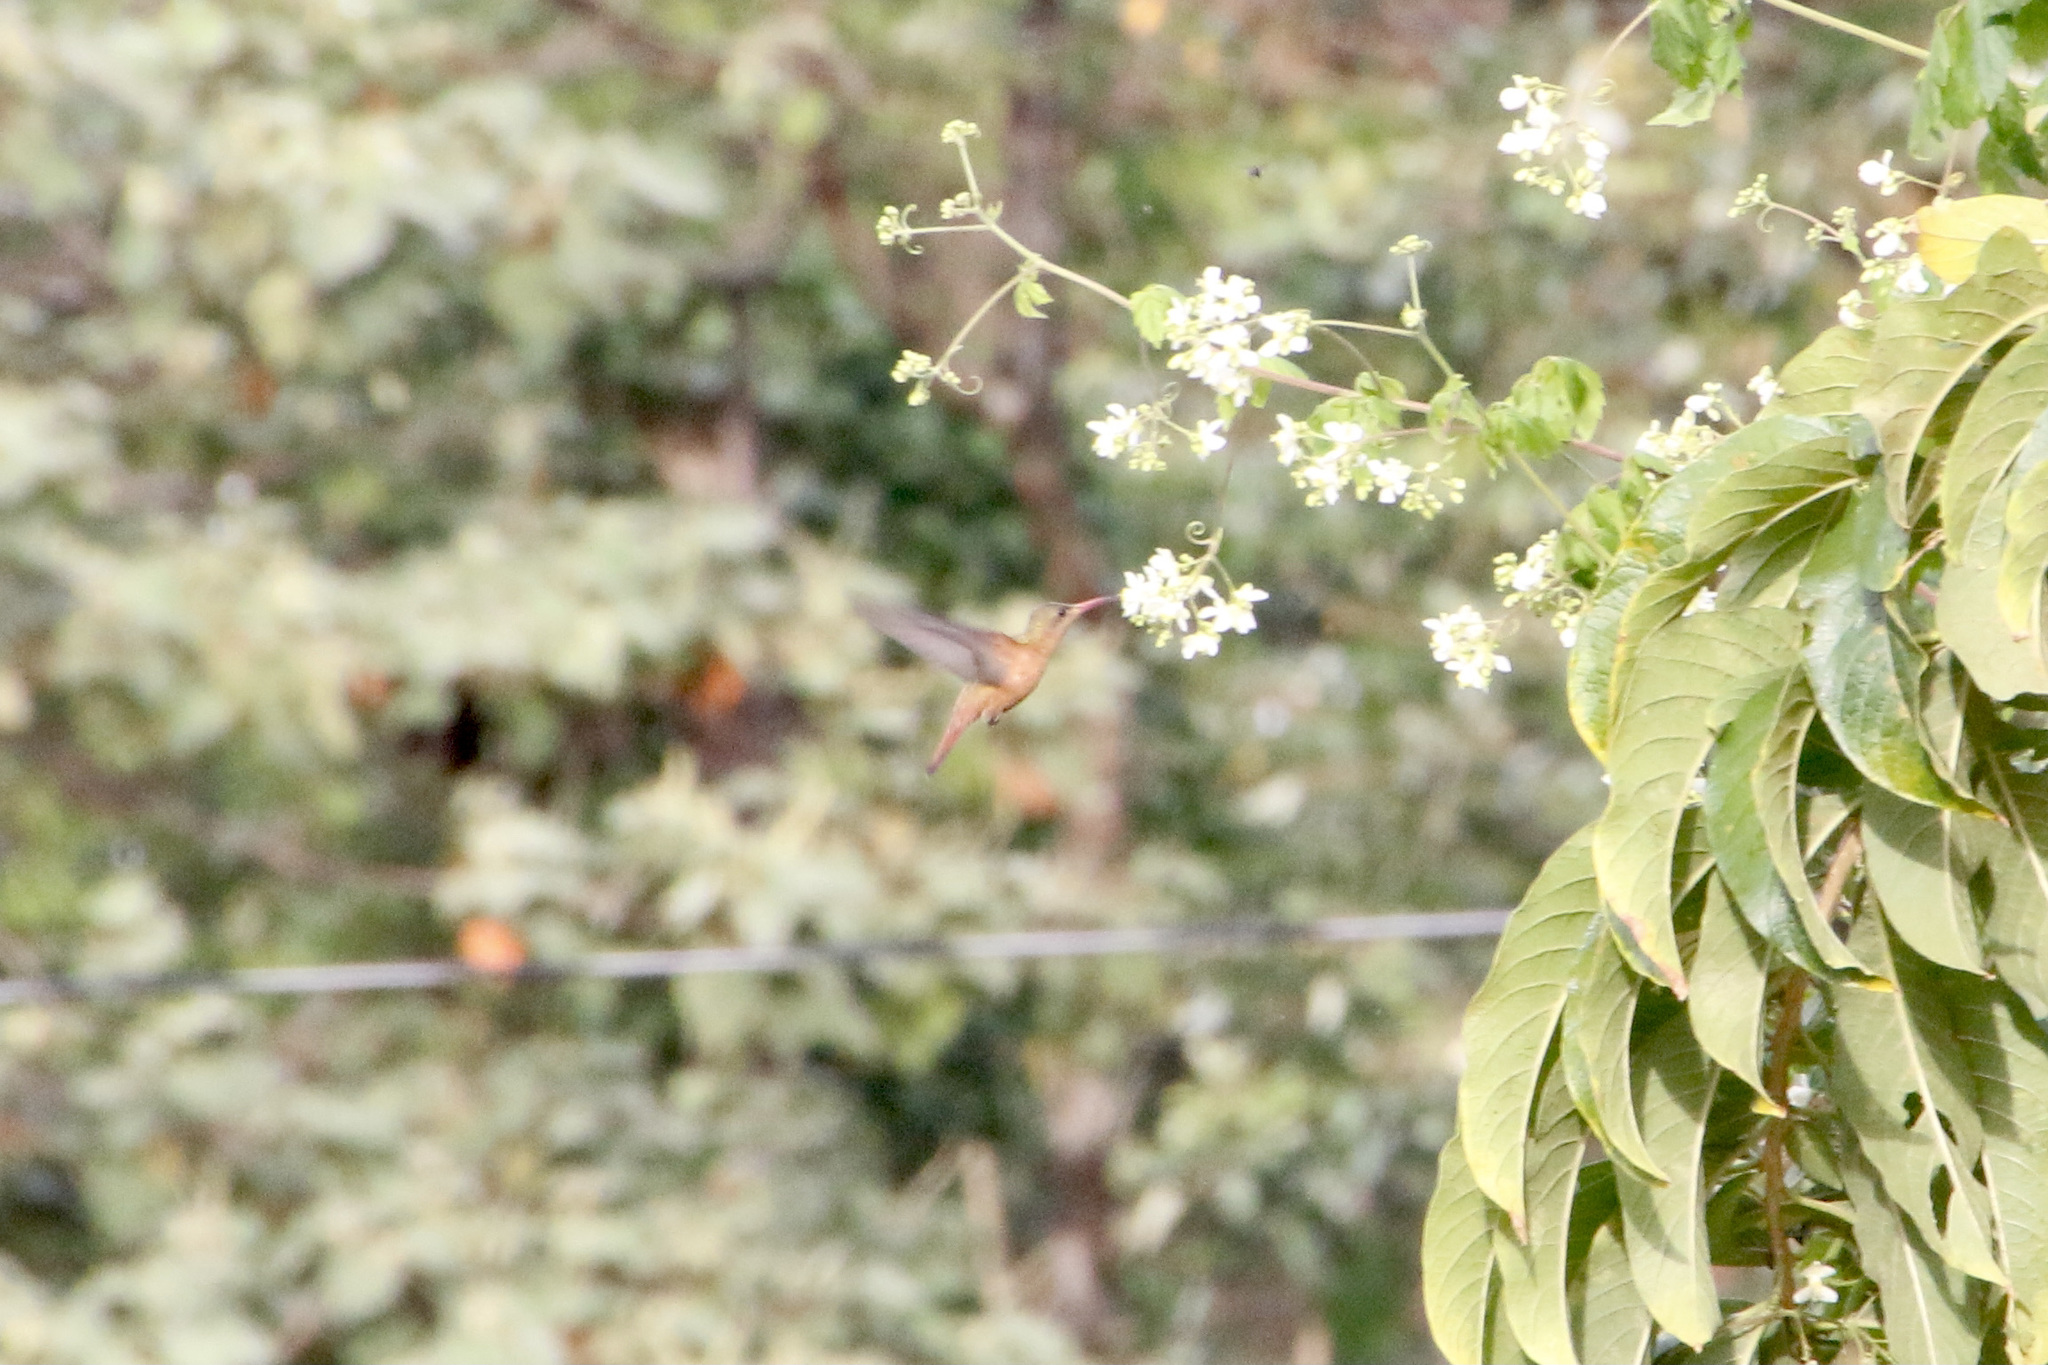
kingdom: Animalia
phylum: Chordata
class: Aves
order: Apodiformes
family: Trochilidae
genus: Amazilia
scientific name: Amazilia rutila
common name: Cinnamon hummingbird
